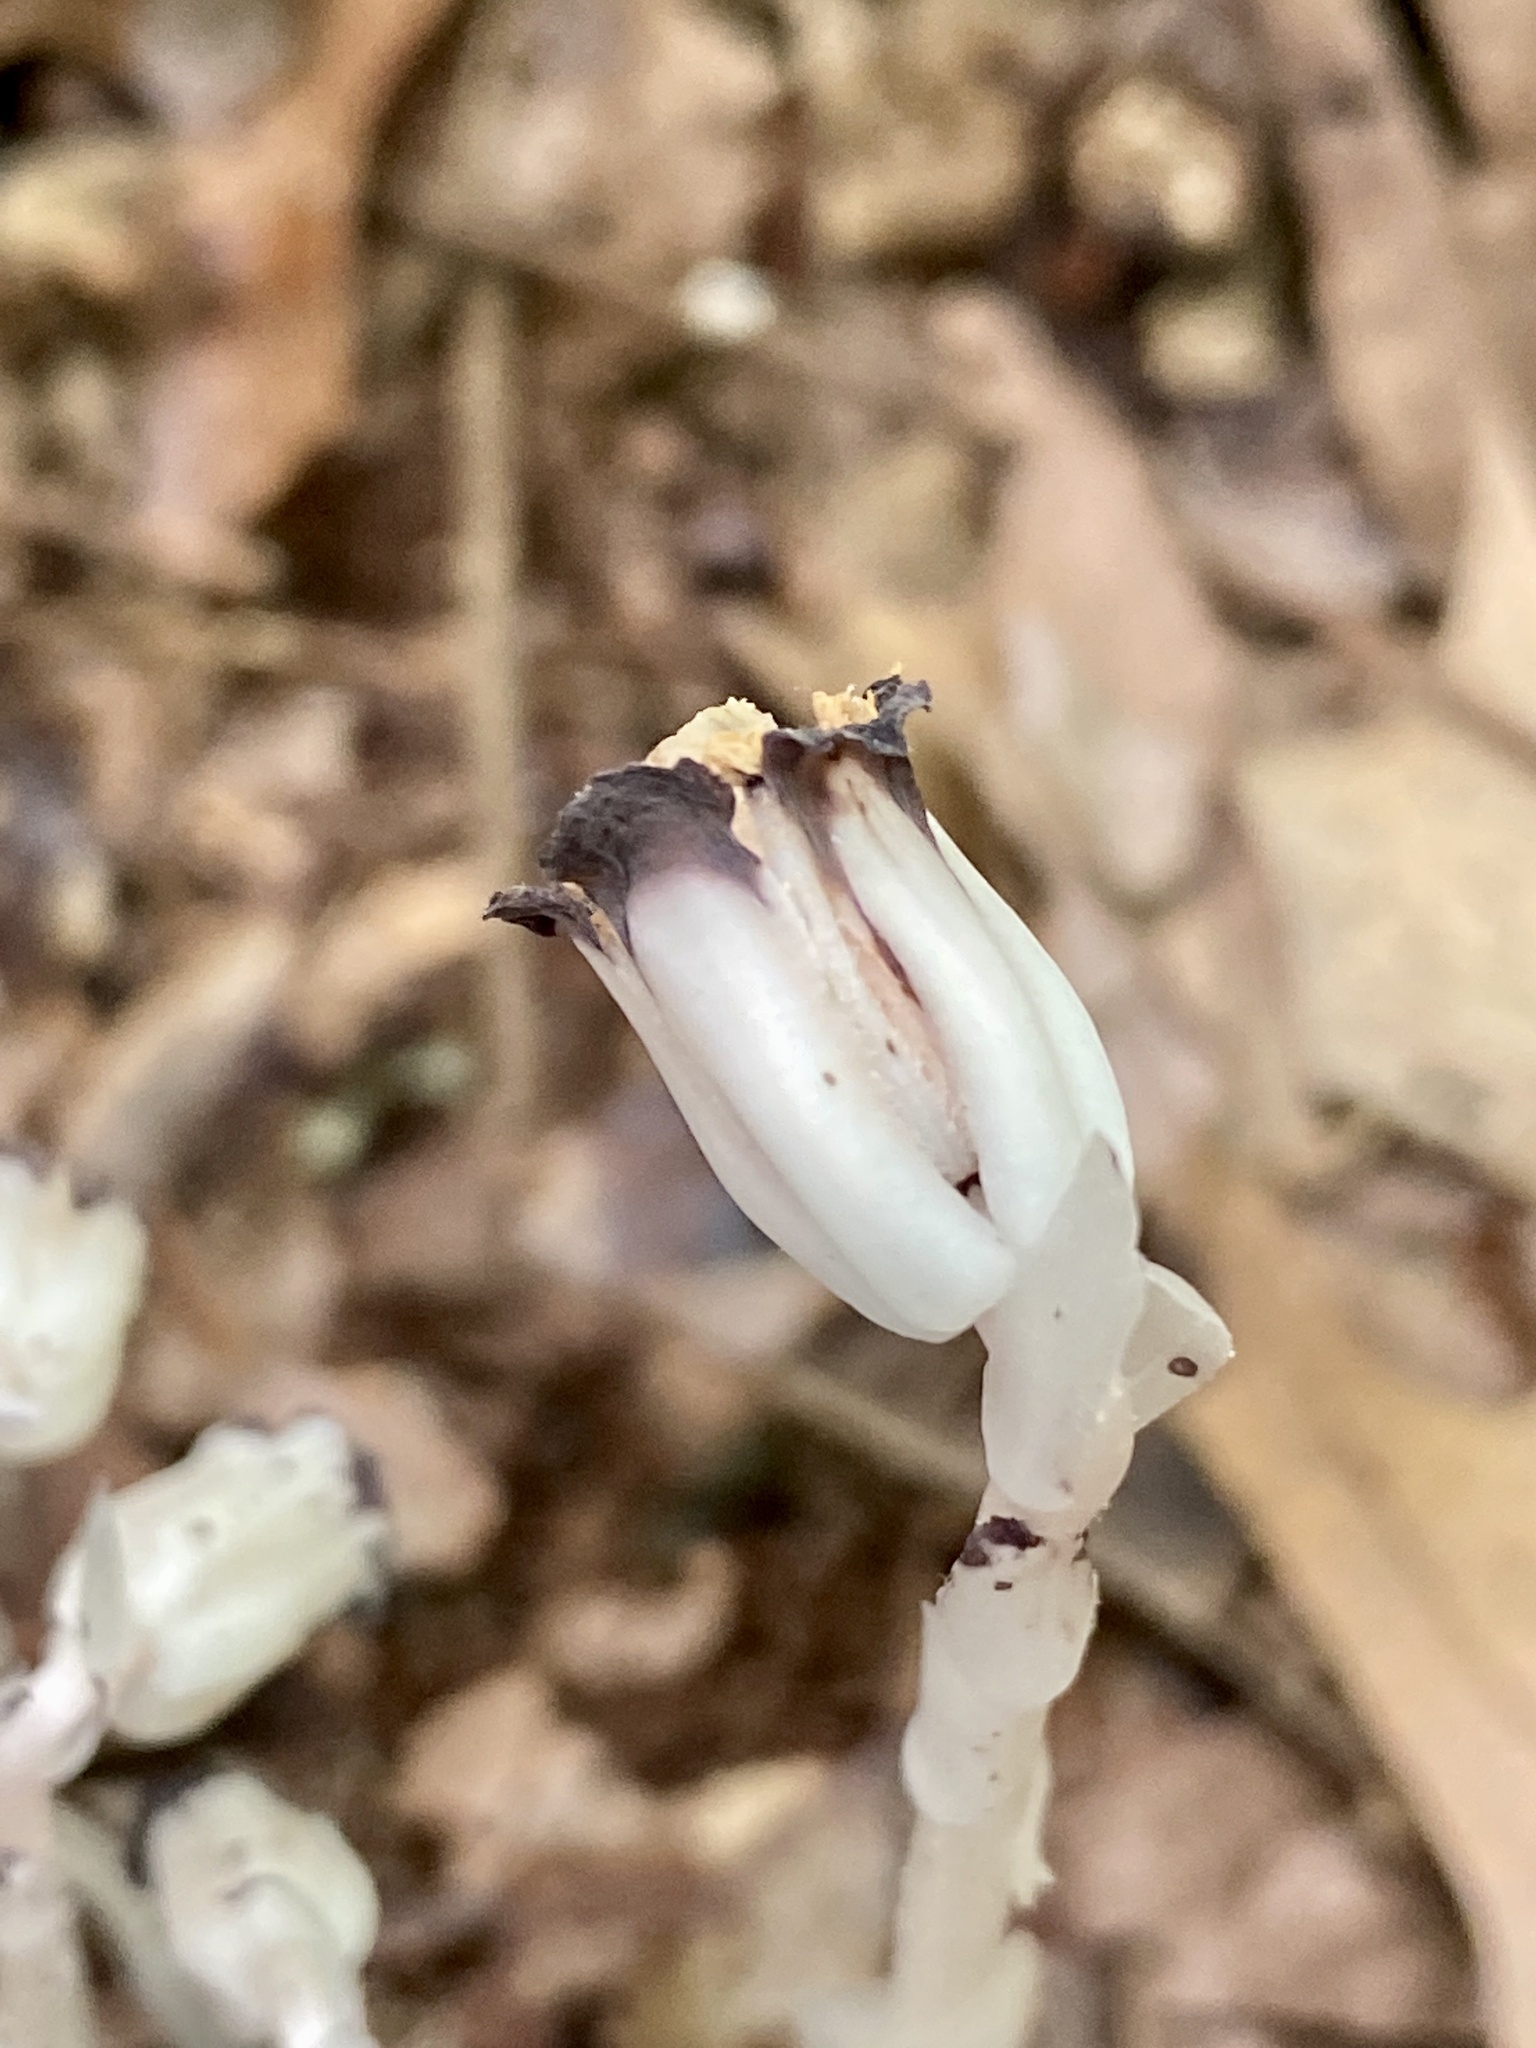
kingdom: Plantae
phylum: Tracheophyta
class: Magnoliopsida
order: Ericales
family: Ericaceae
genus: Monotropa
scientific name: Monotropa uniflora
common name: Convulsion root
